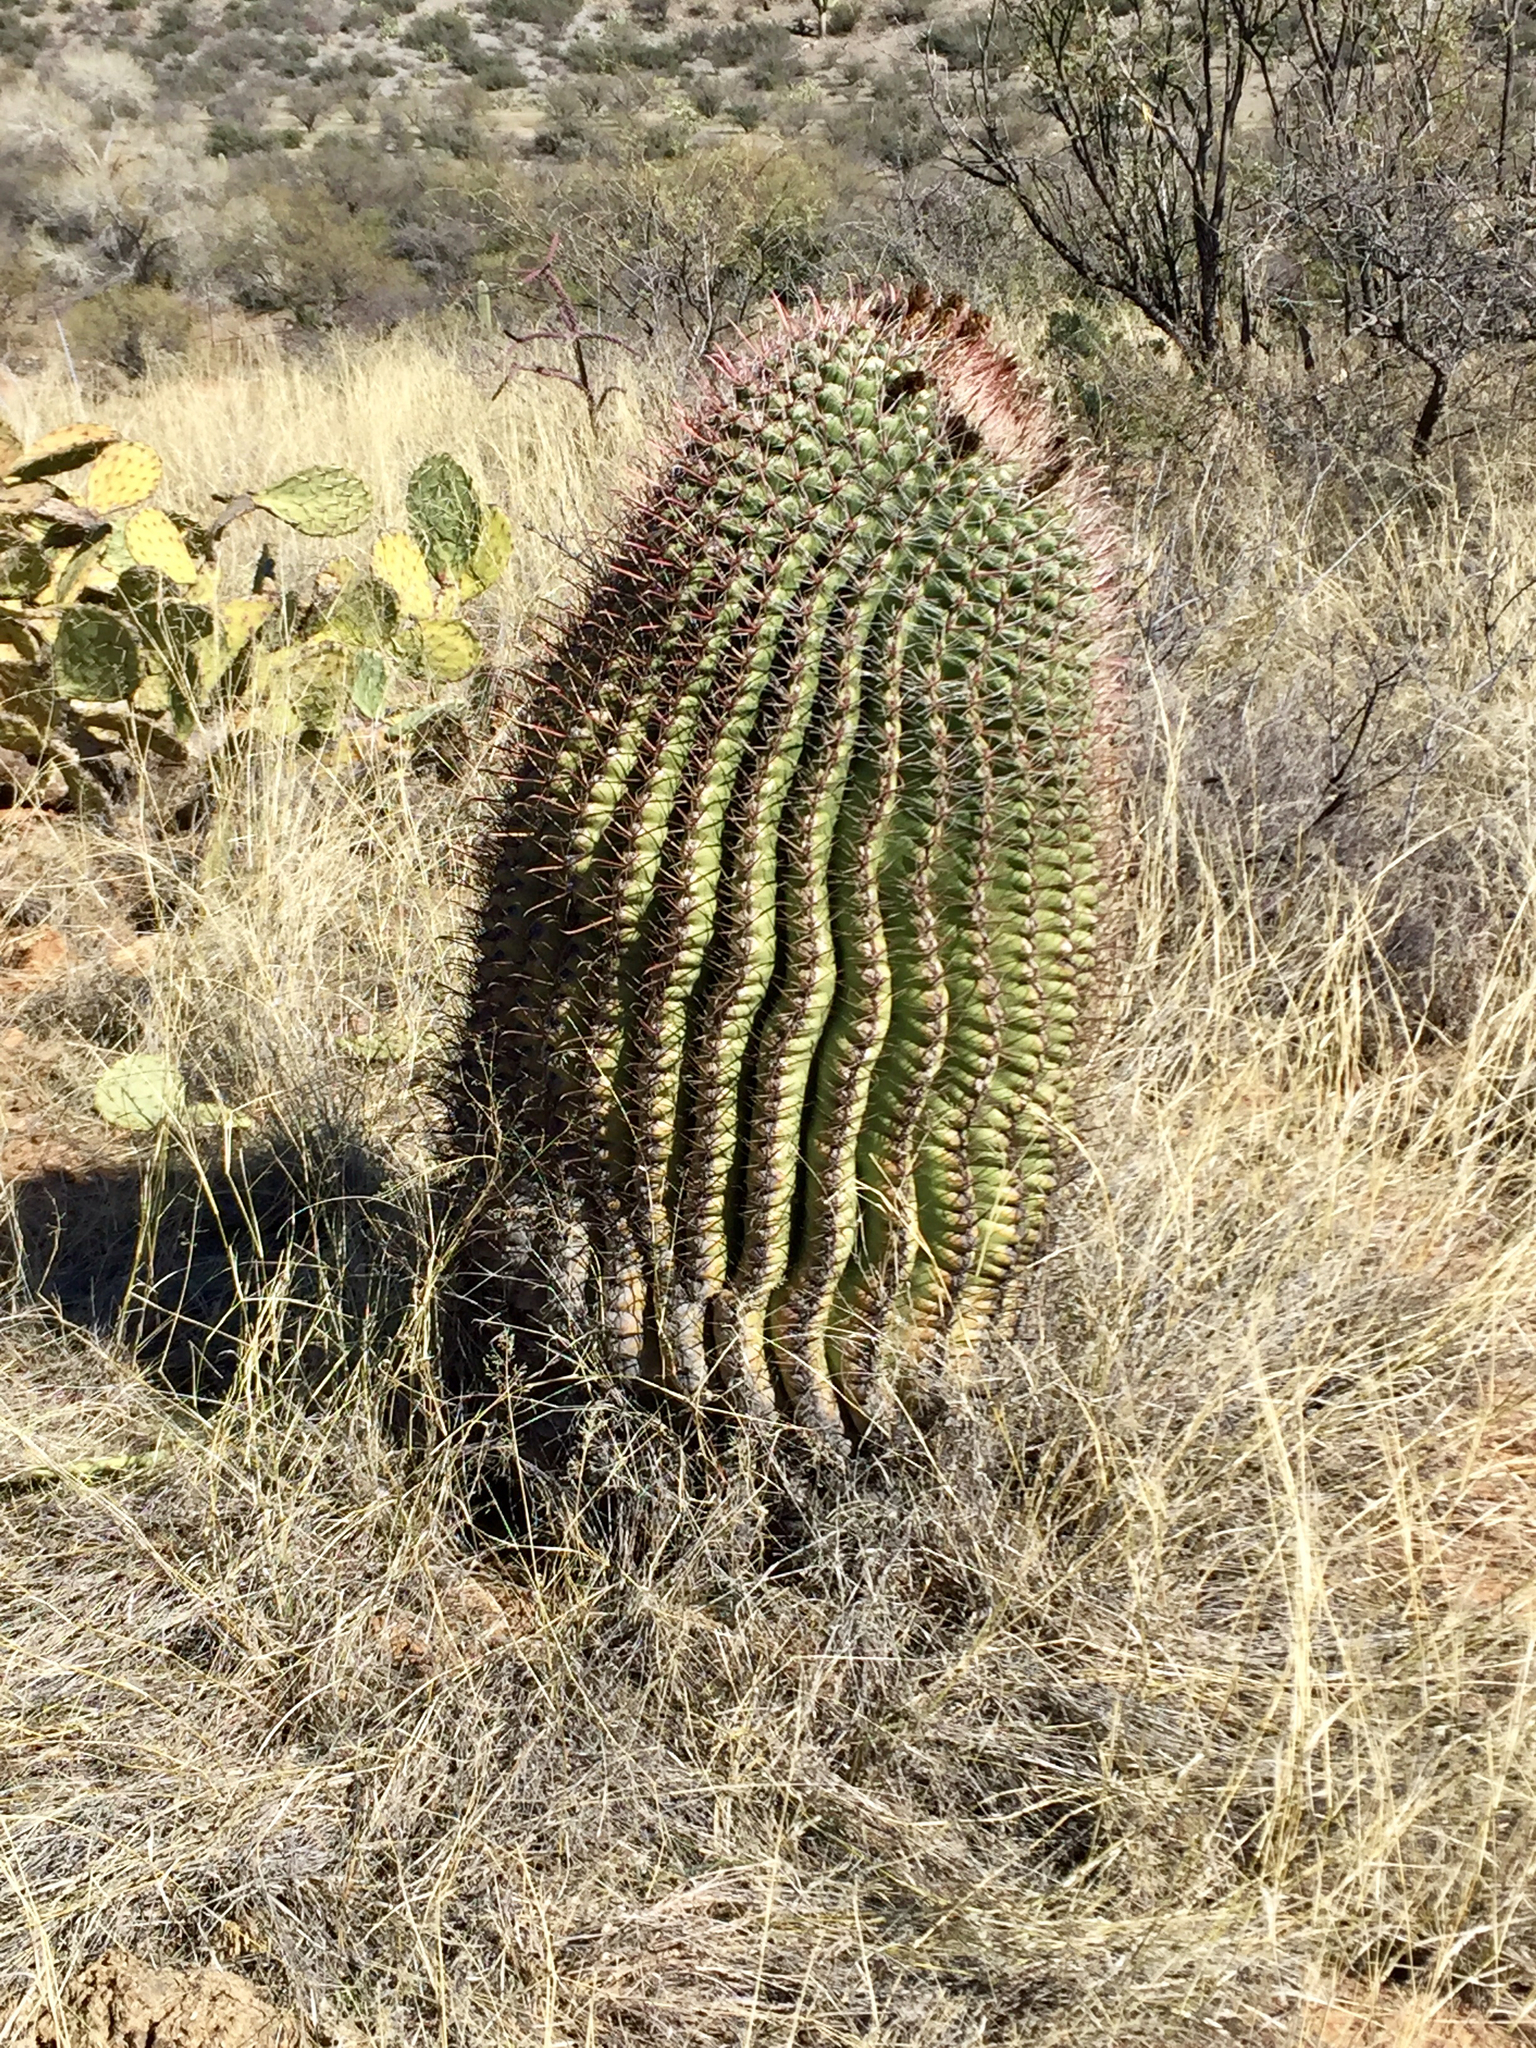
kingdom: Plantae
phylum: Tracheophyta
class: Magnoliopsida
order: Caryophyllales
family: Cactaceae
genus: Ferocactus
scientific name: Ferocactus wislizeni
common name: Candy barrel cactus
